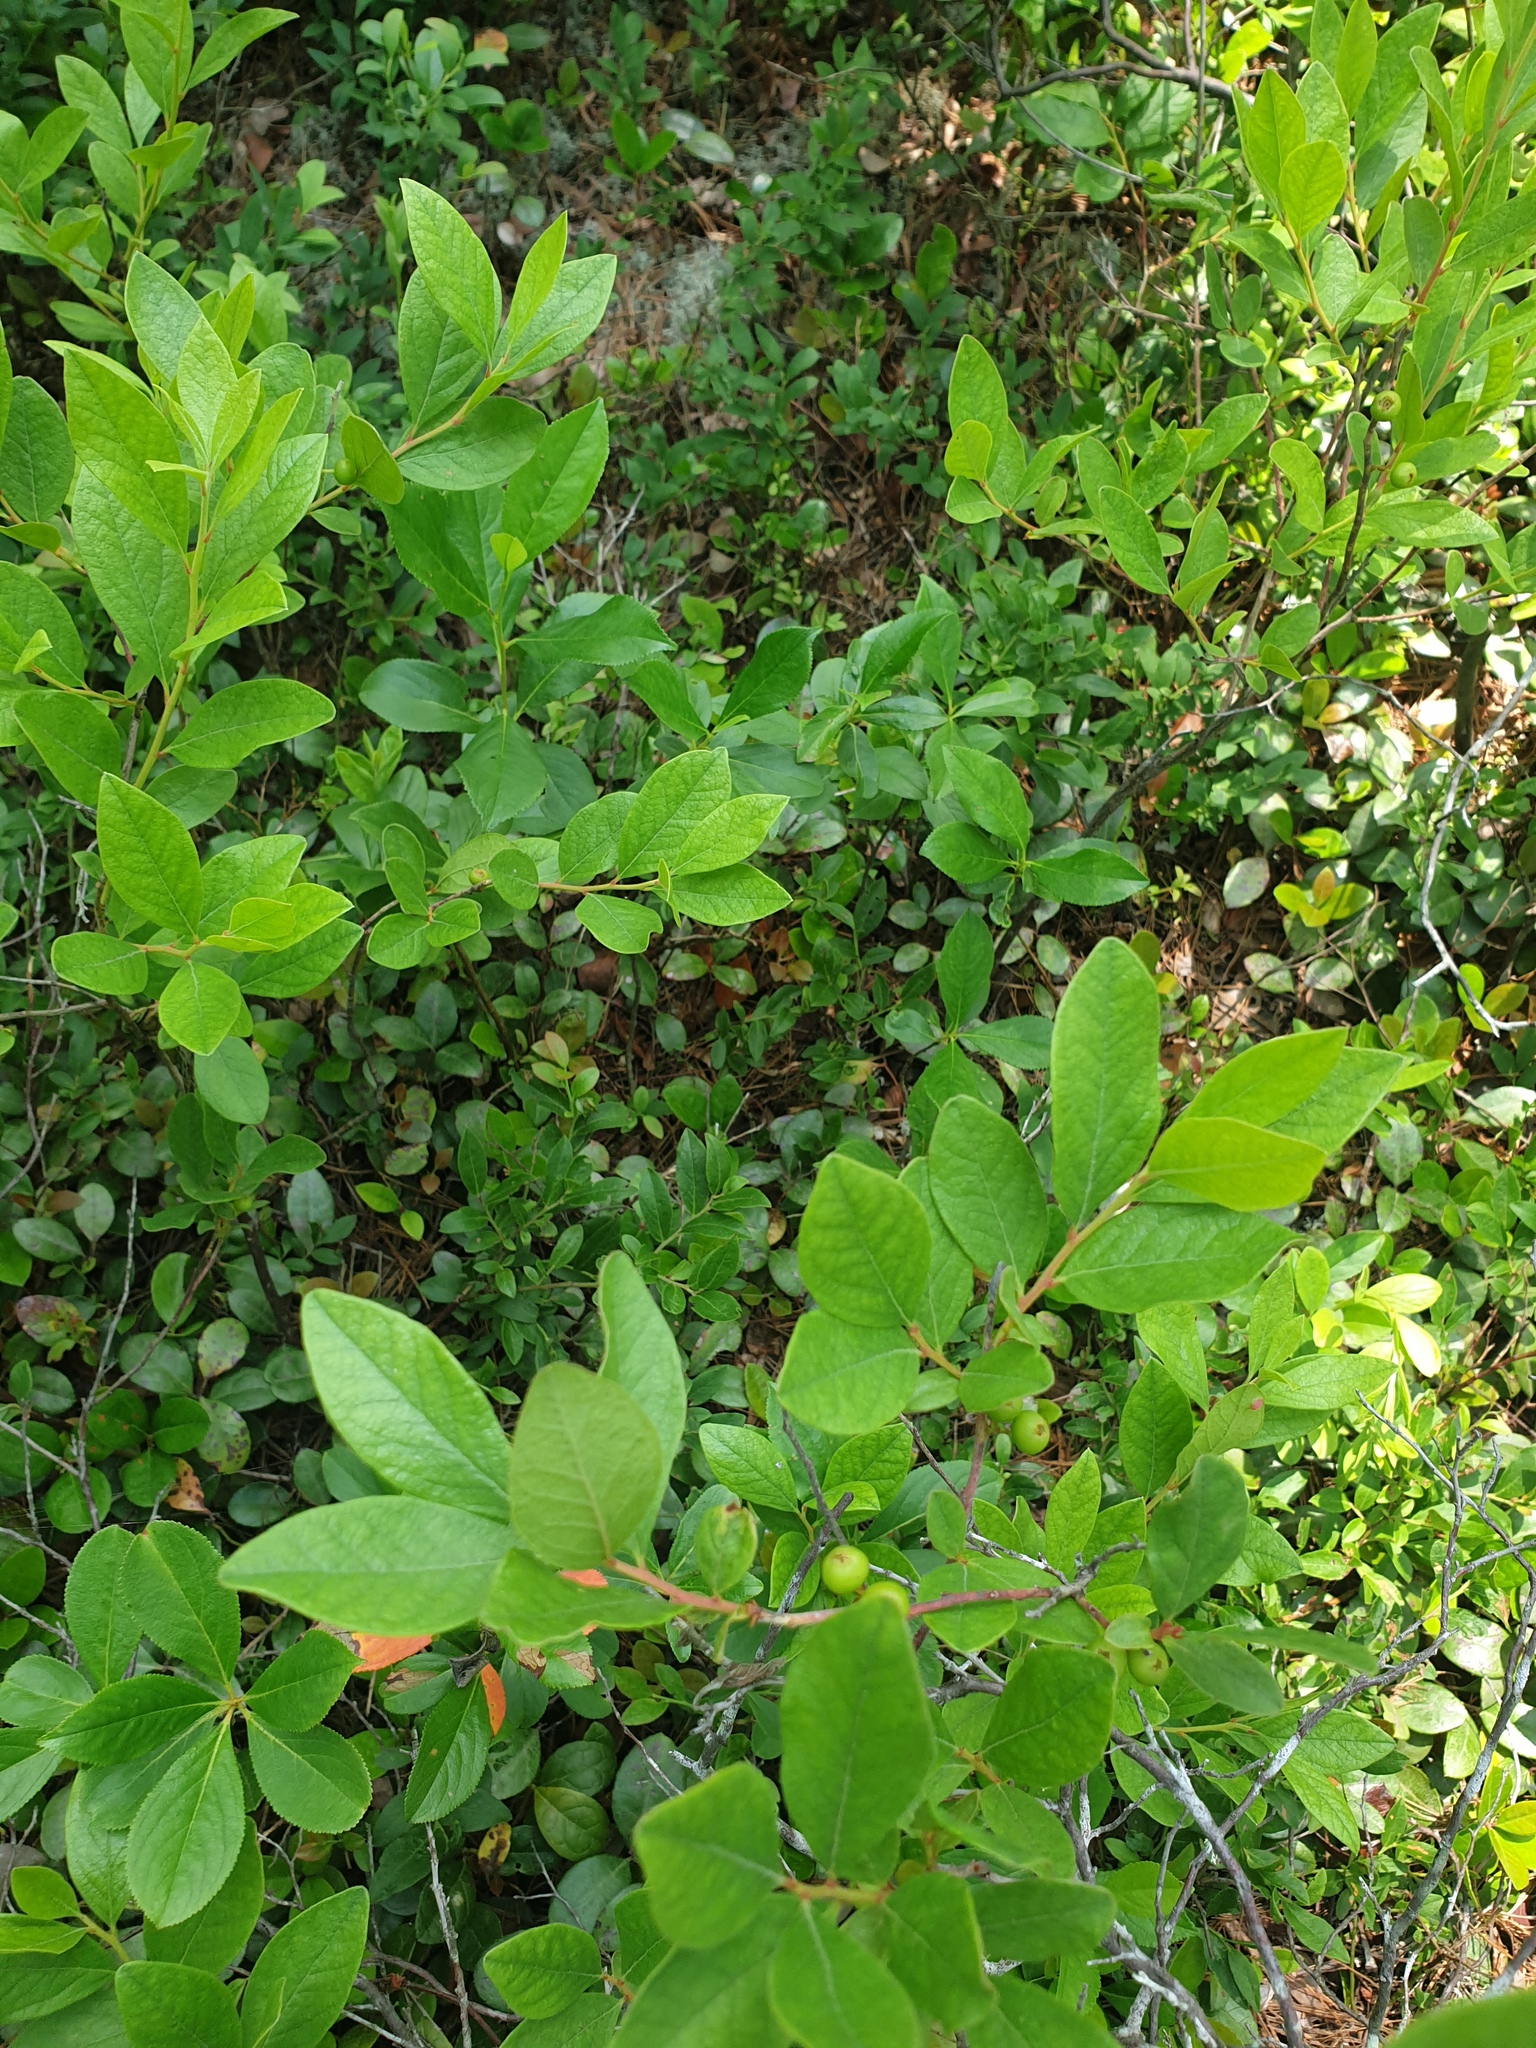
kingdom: Plantae
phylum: Tracheophyta
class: Magnoliopsida
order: Ericales
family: Ericaceae
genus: Gaultheria
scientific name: Gaultheria procumbens
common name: Checkerberry
